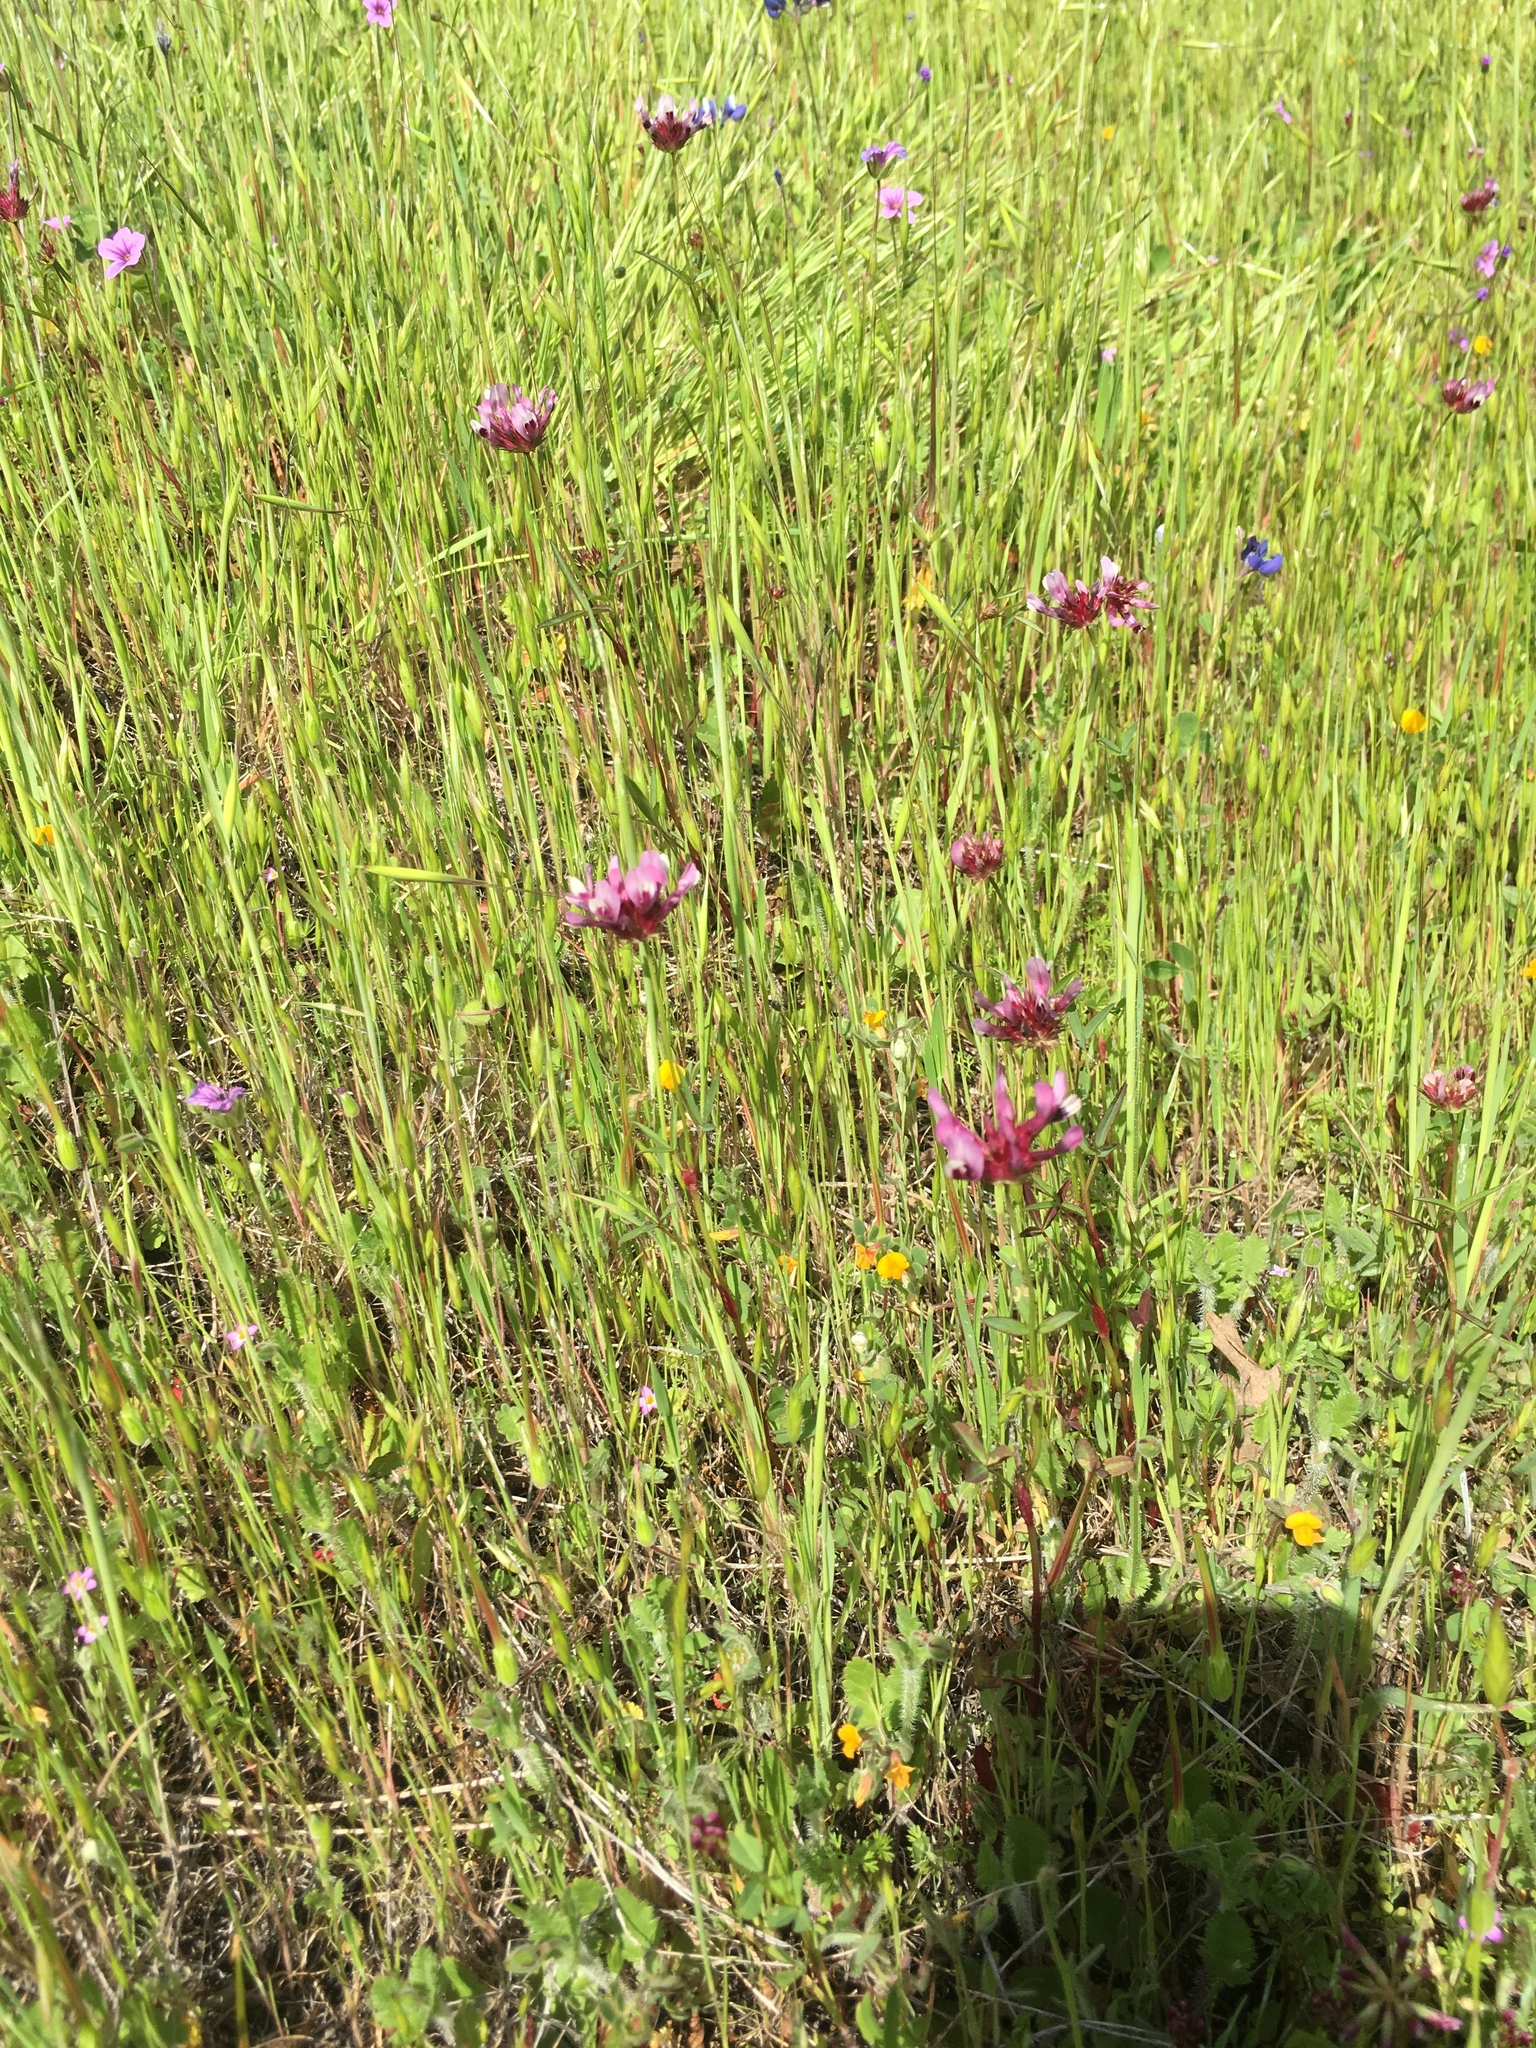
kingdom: Plantae
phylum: Tracheophyta
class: Magnoliopsida
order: Fabales
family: Fabaceae
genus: Trifolium
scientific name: Trifolium willdenovii
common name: Tomcat clover
